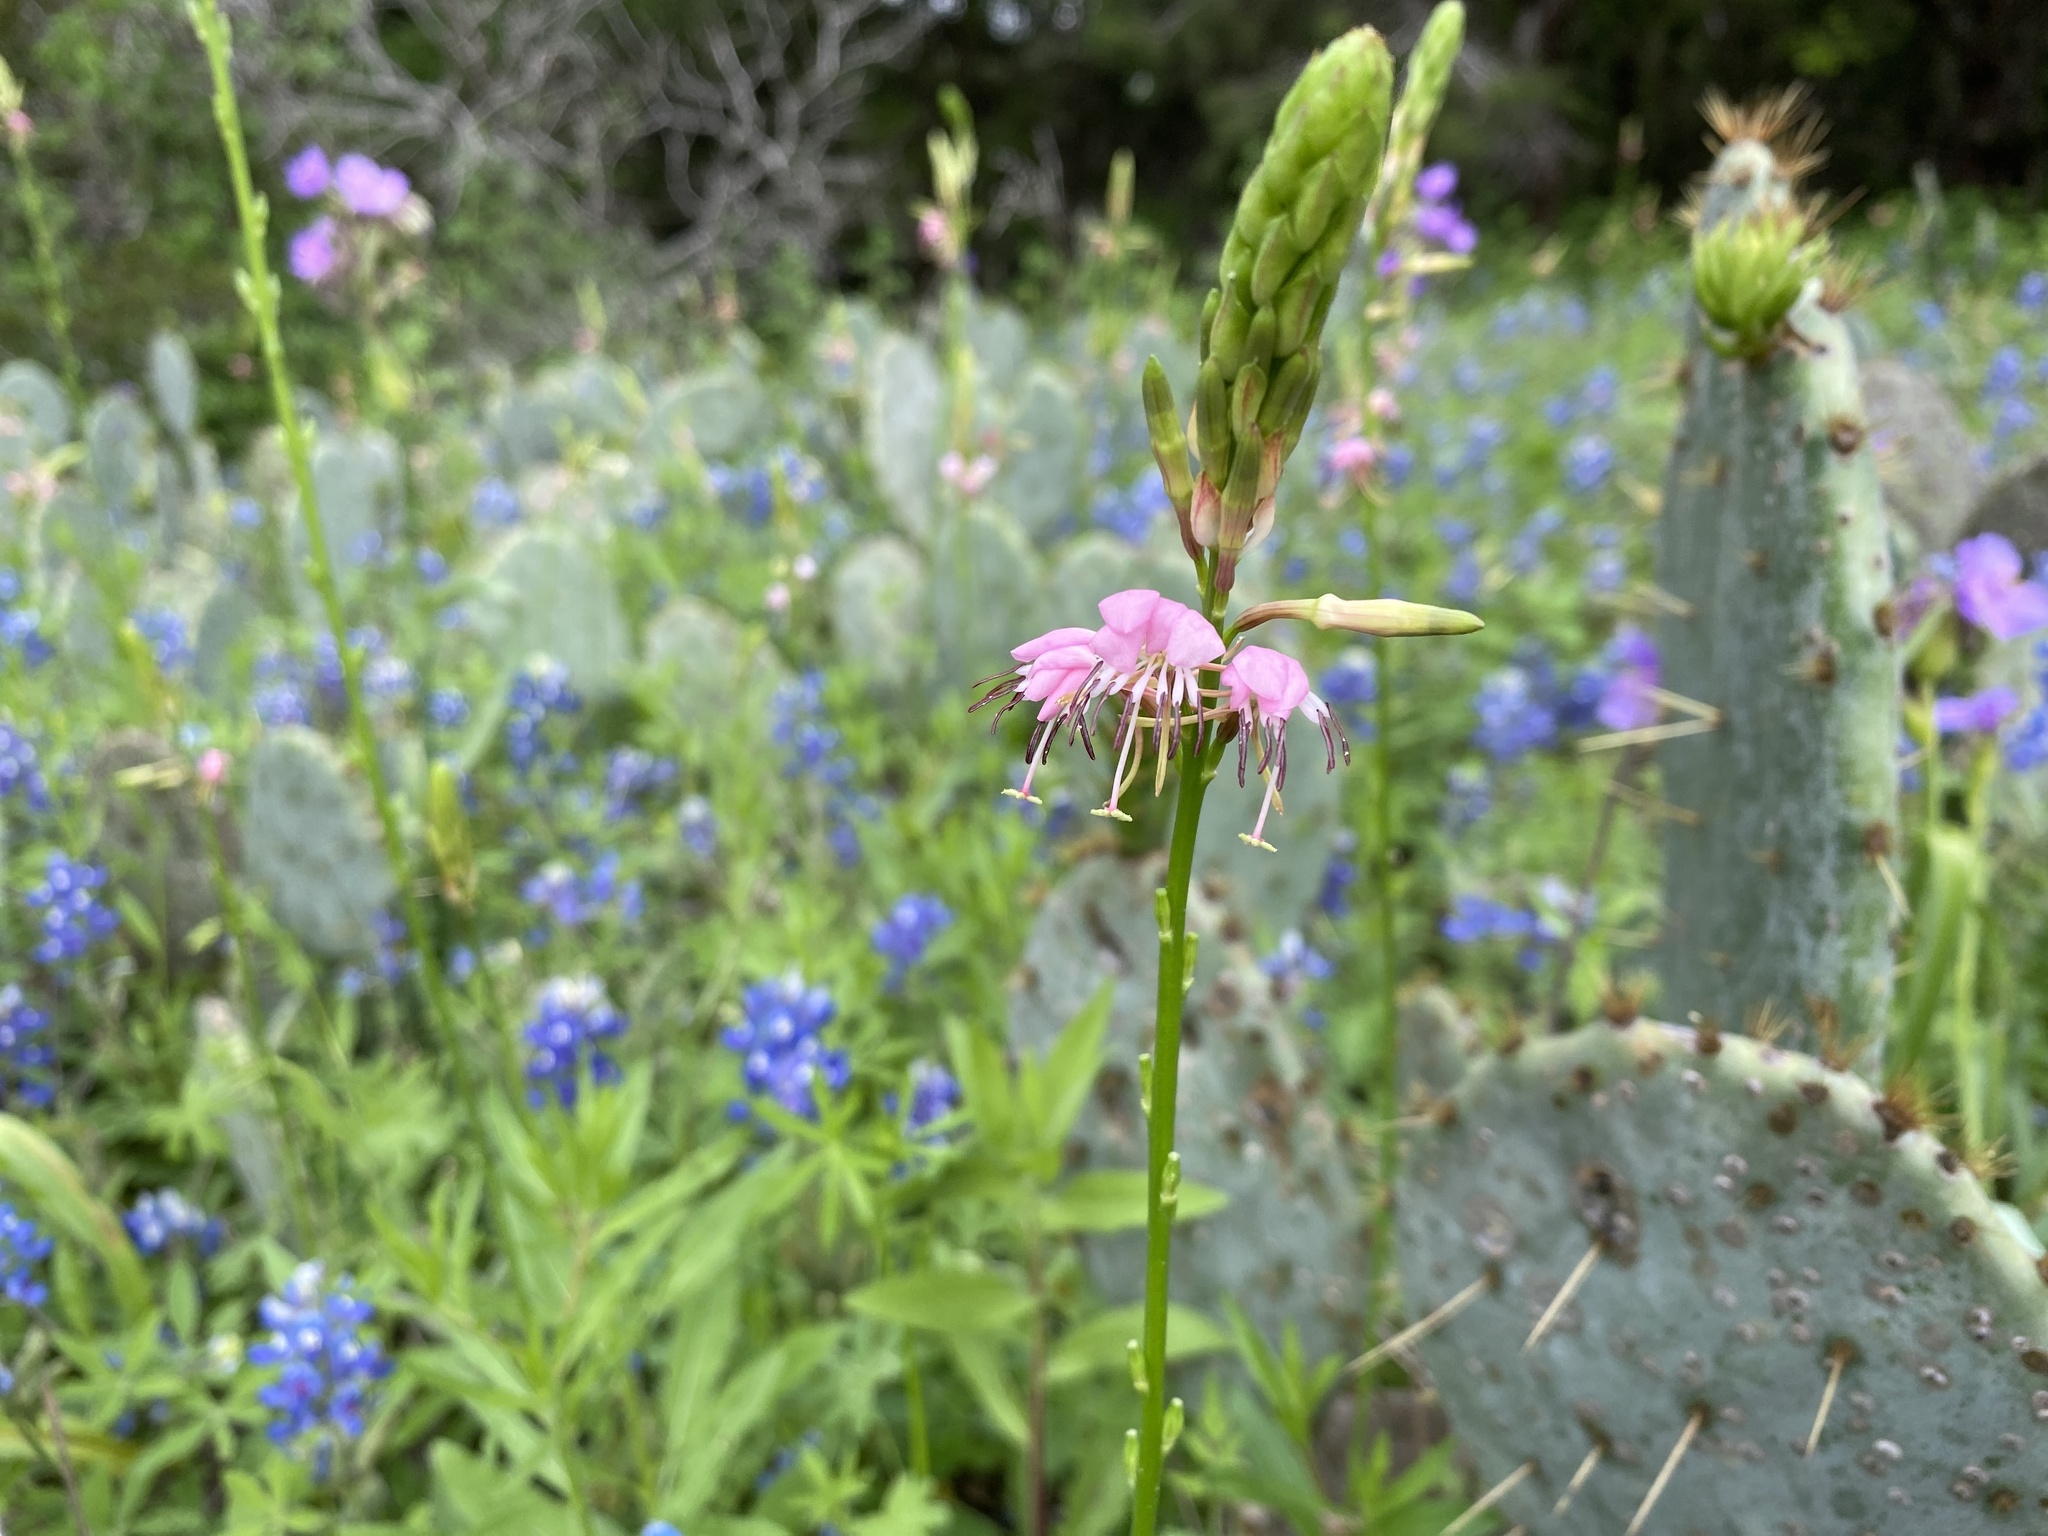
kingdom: Plantae
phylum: Tracheophyta
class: Magnoliopsida
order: Myrtales
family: Onagraceae
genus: Oenothera
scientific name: Oenothera suffulta
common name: Kisses
